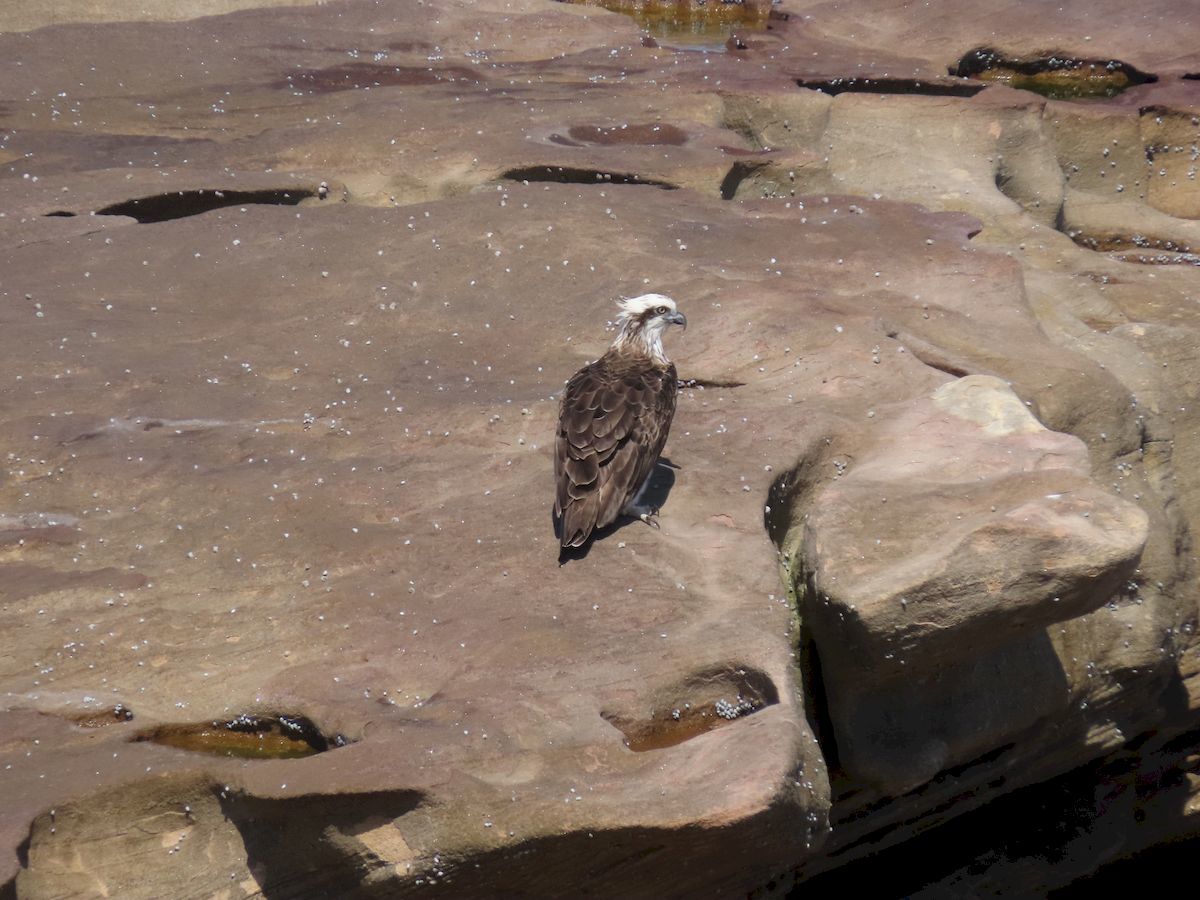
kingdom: Animalia
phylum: Chordata
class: Aves
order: Accipitriformes
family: Pandionidae
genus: Pandion
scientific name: Pandion cristatus
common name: Eastern osprey
